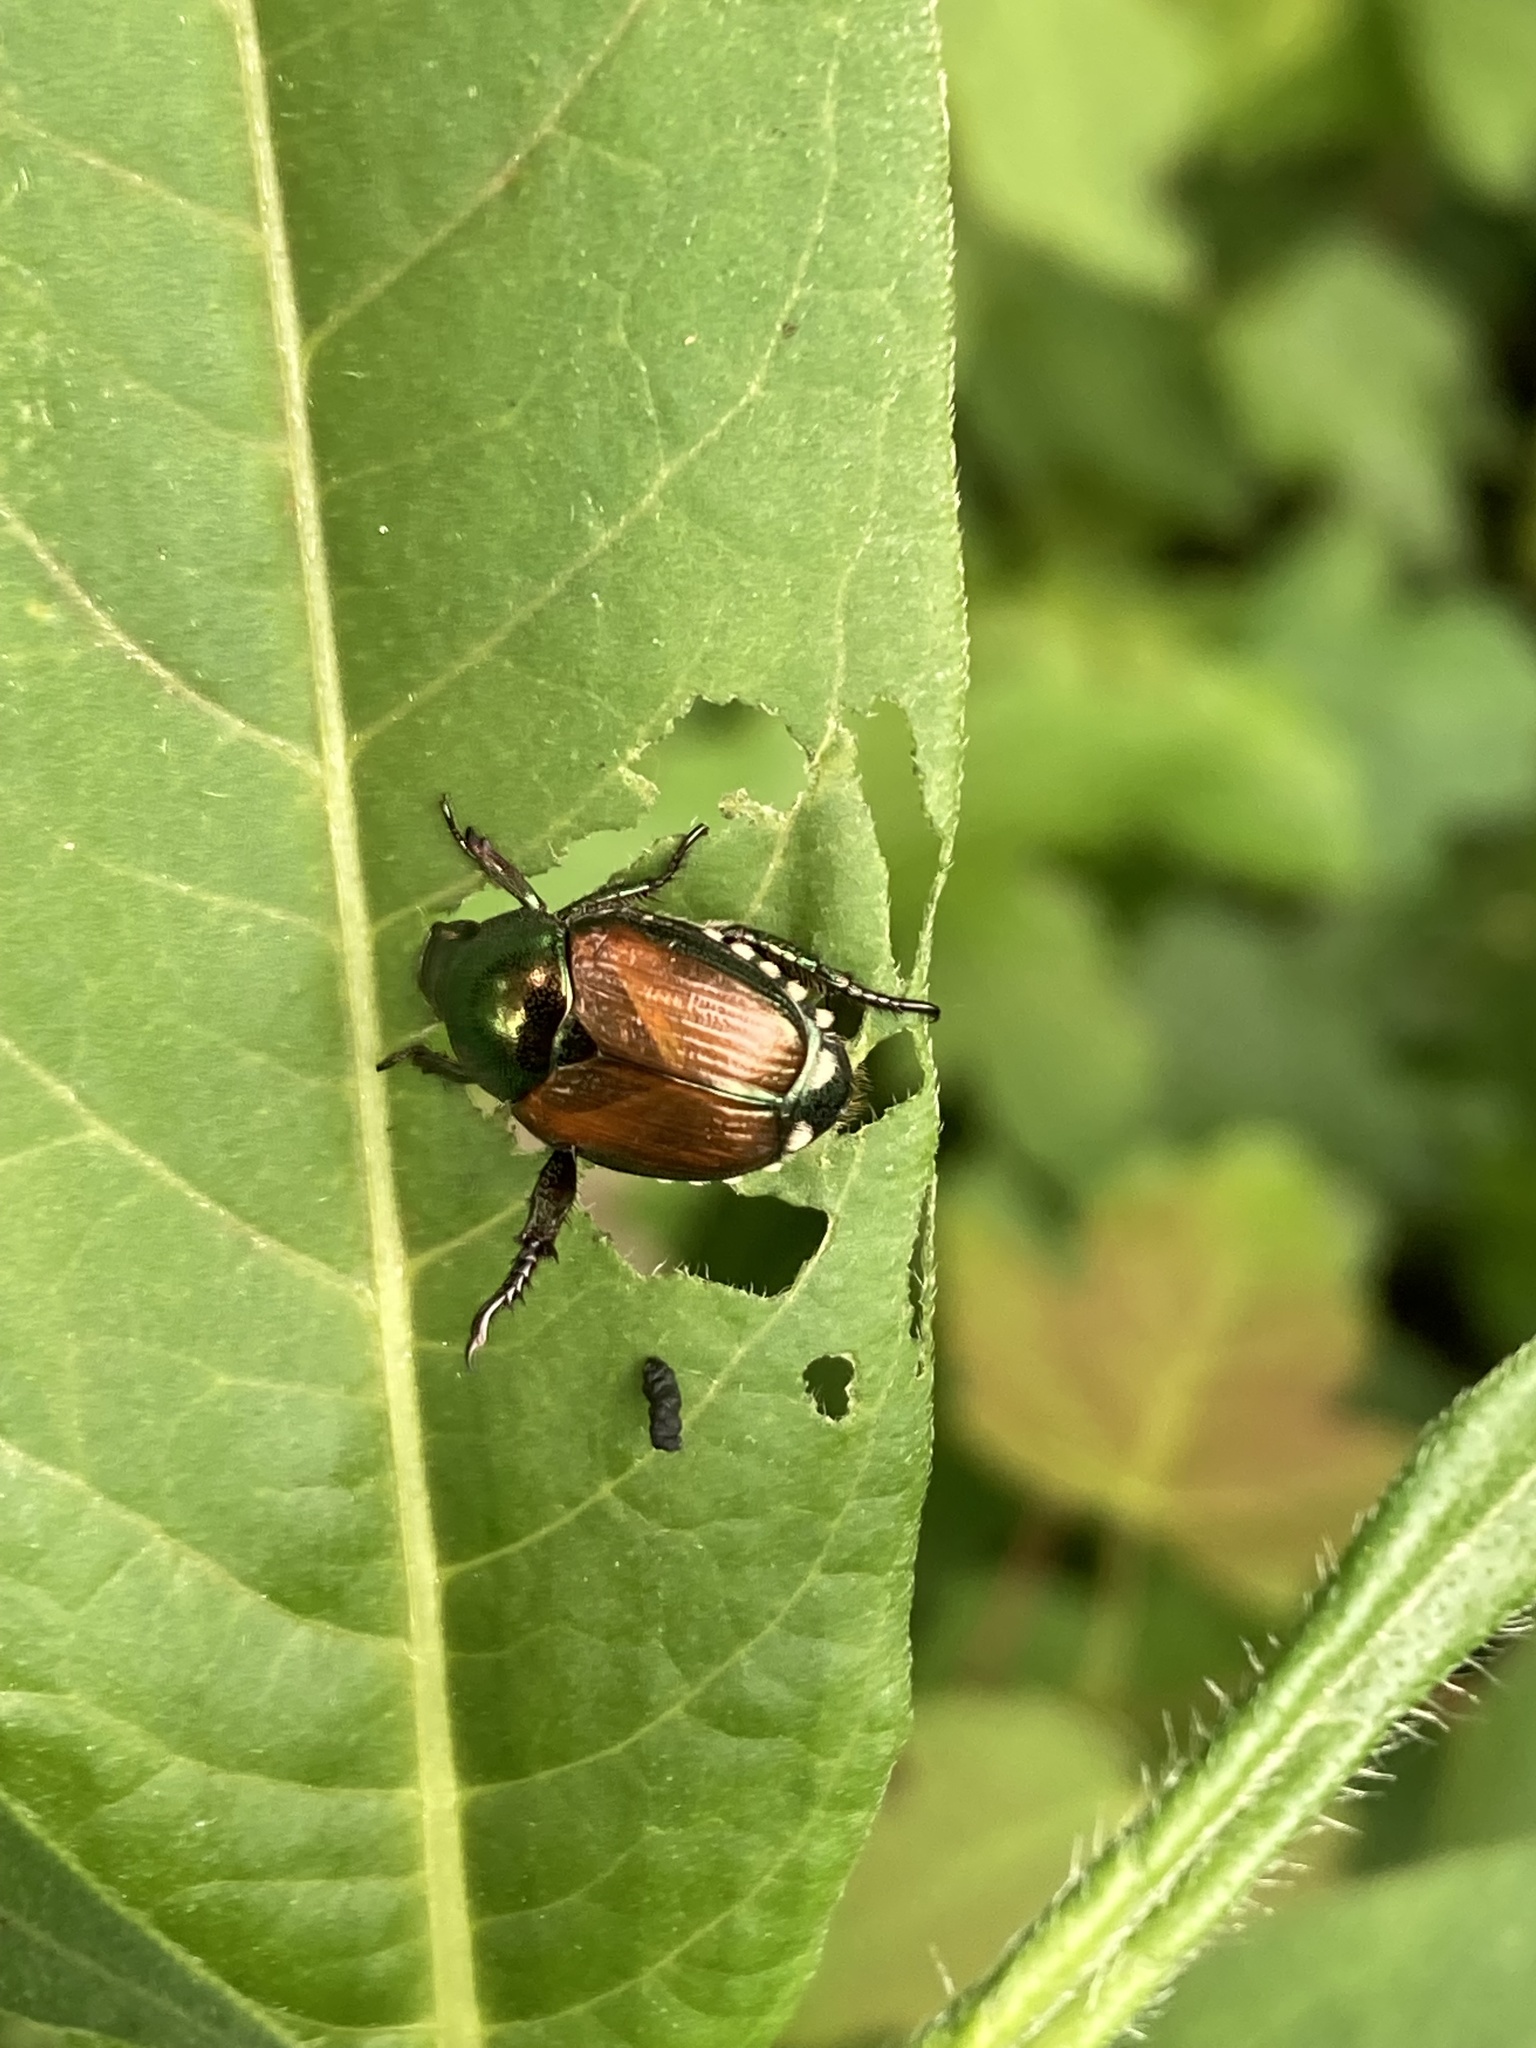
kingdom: Animalia
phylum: Arthropoda
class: Insecta
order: Coleoptera
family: Scarabaeidae
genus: Popillia
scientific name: Popillia japonica
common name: Japanese beetle
